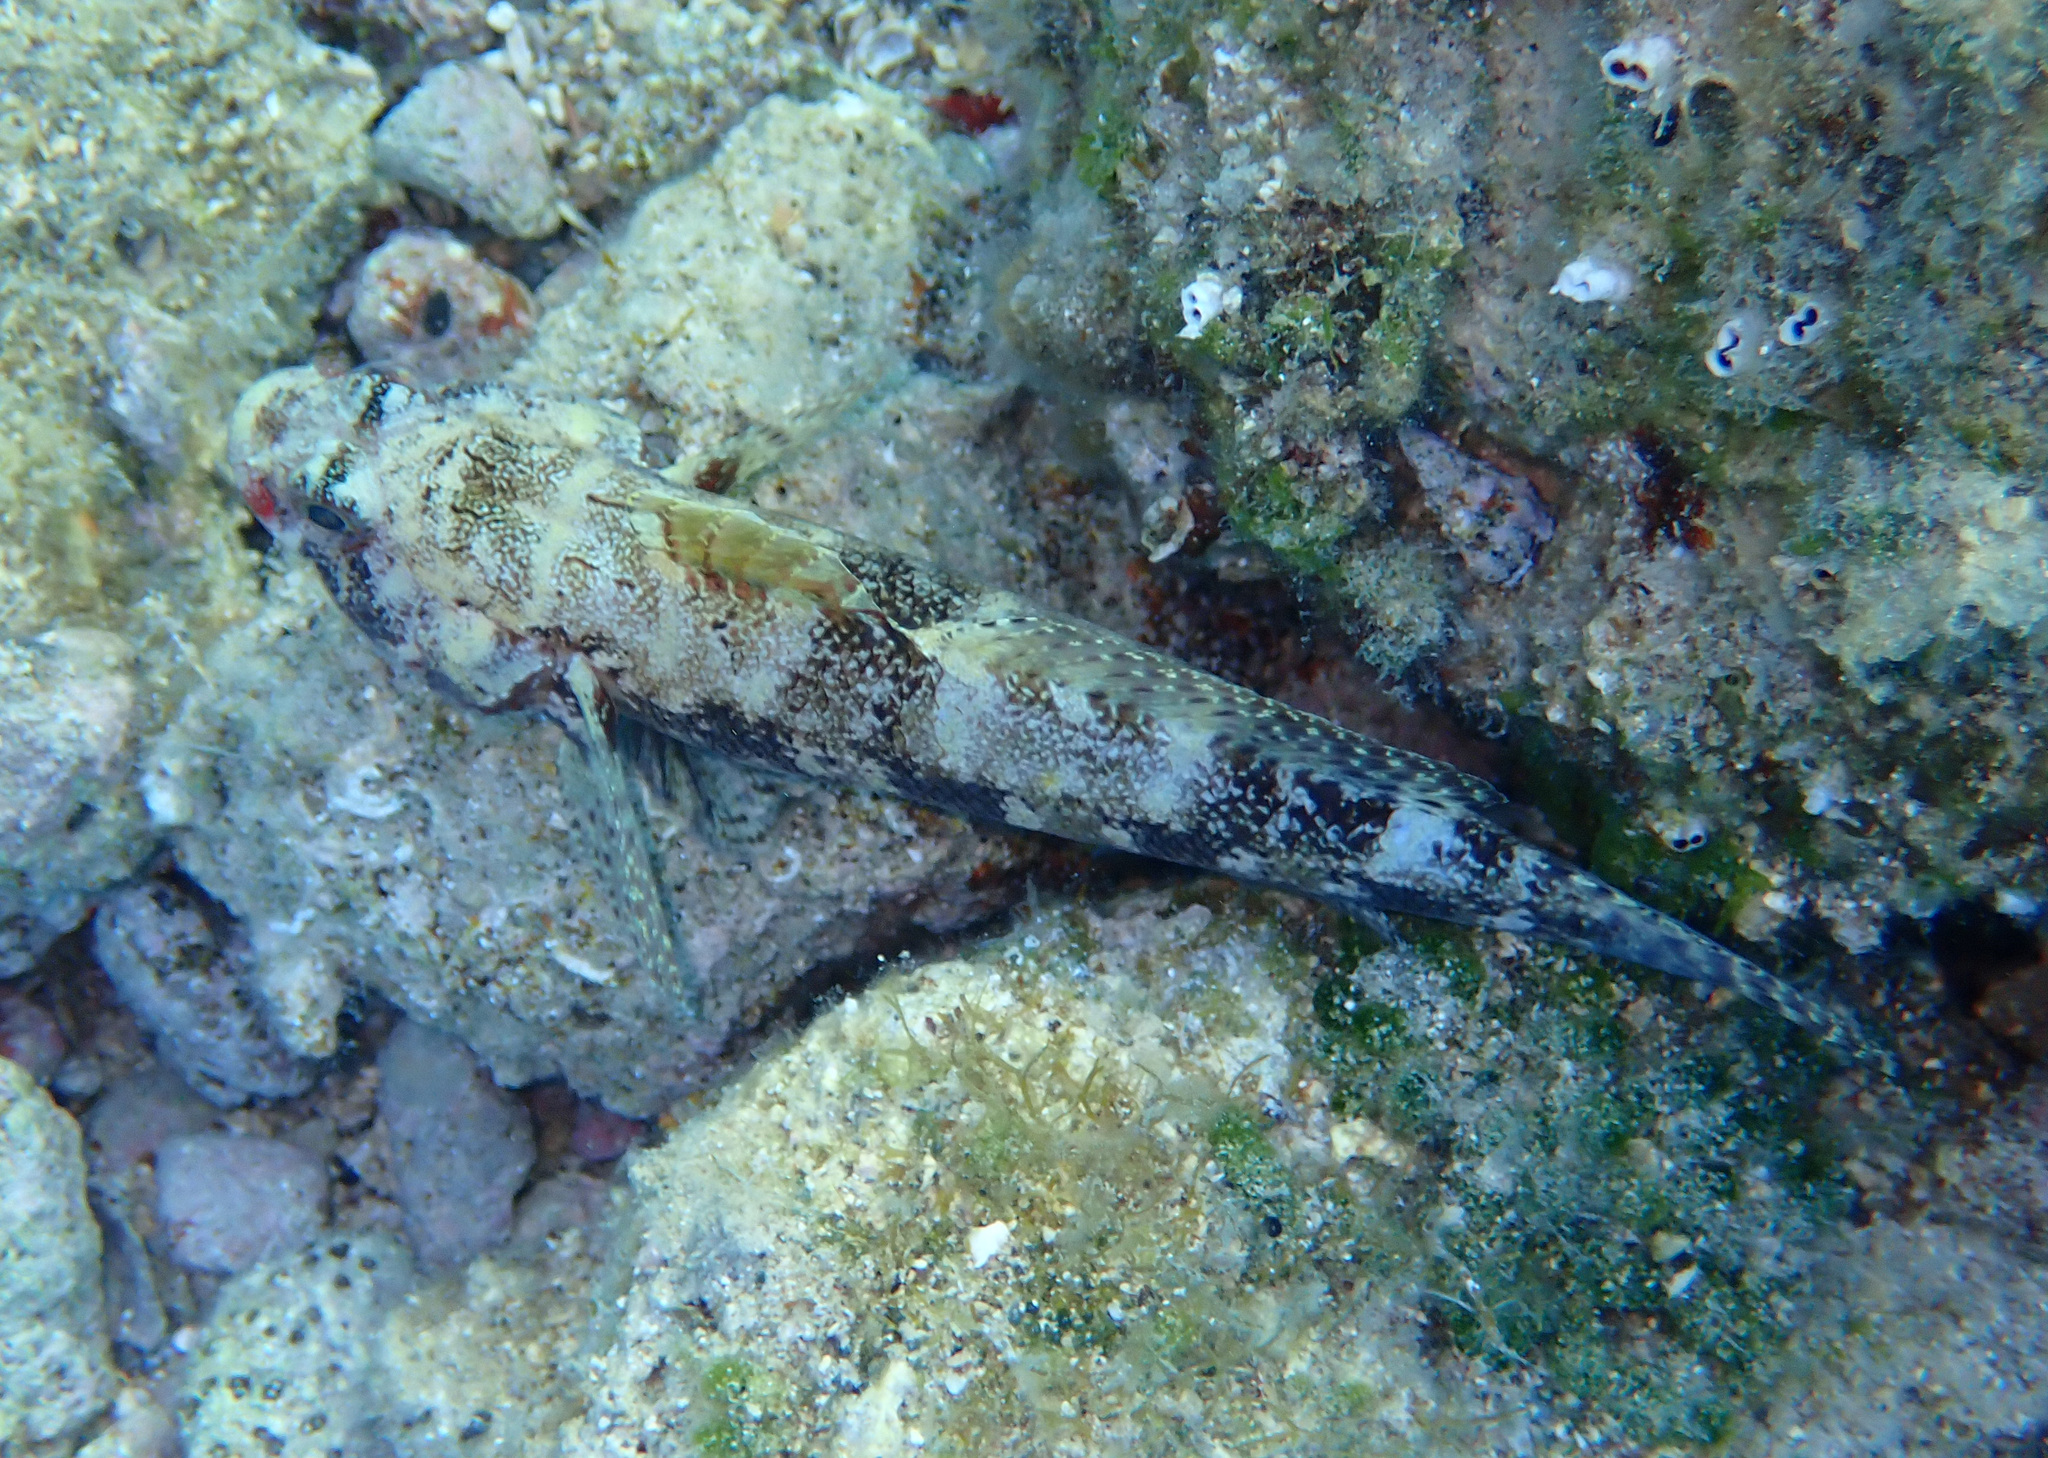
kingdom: Animalia
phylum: Chordata
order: Perciformes
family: Gobiidae
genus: Gobius
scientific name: Gobius cruentatus
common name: Red-mouthed goby
